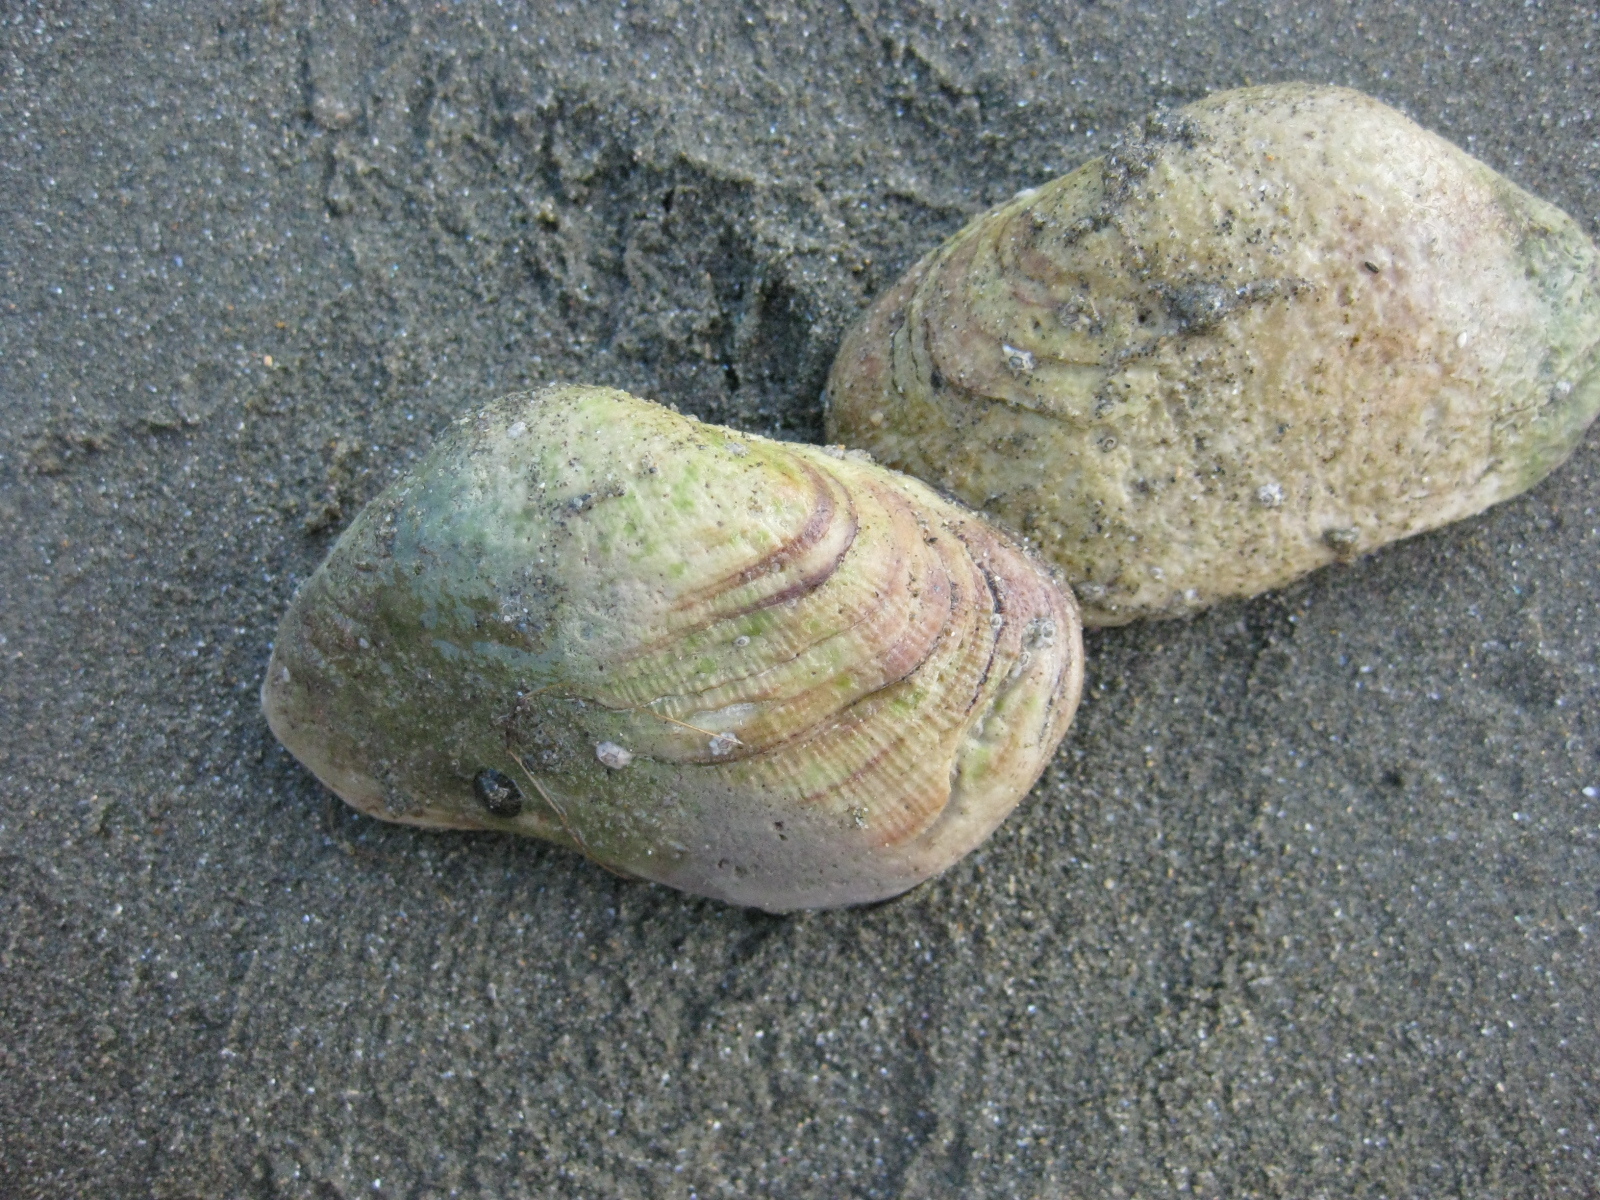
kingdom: Animalia
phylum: Mollusca
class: Bivalvia
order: Arcida
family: Arcidae
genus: Barbatia
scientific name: Barbatia novaezealandiae
